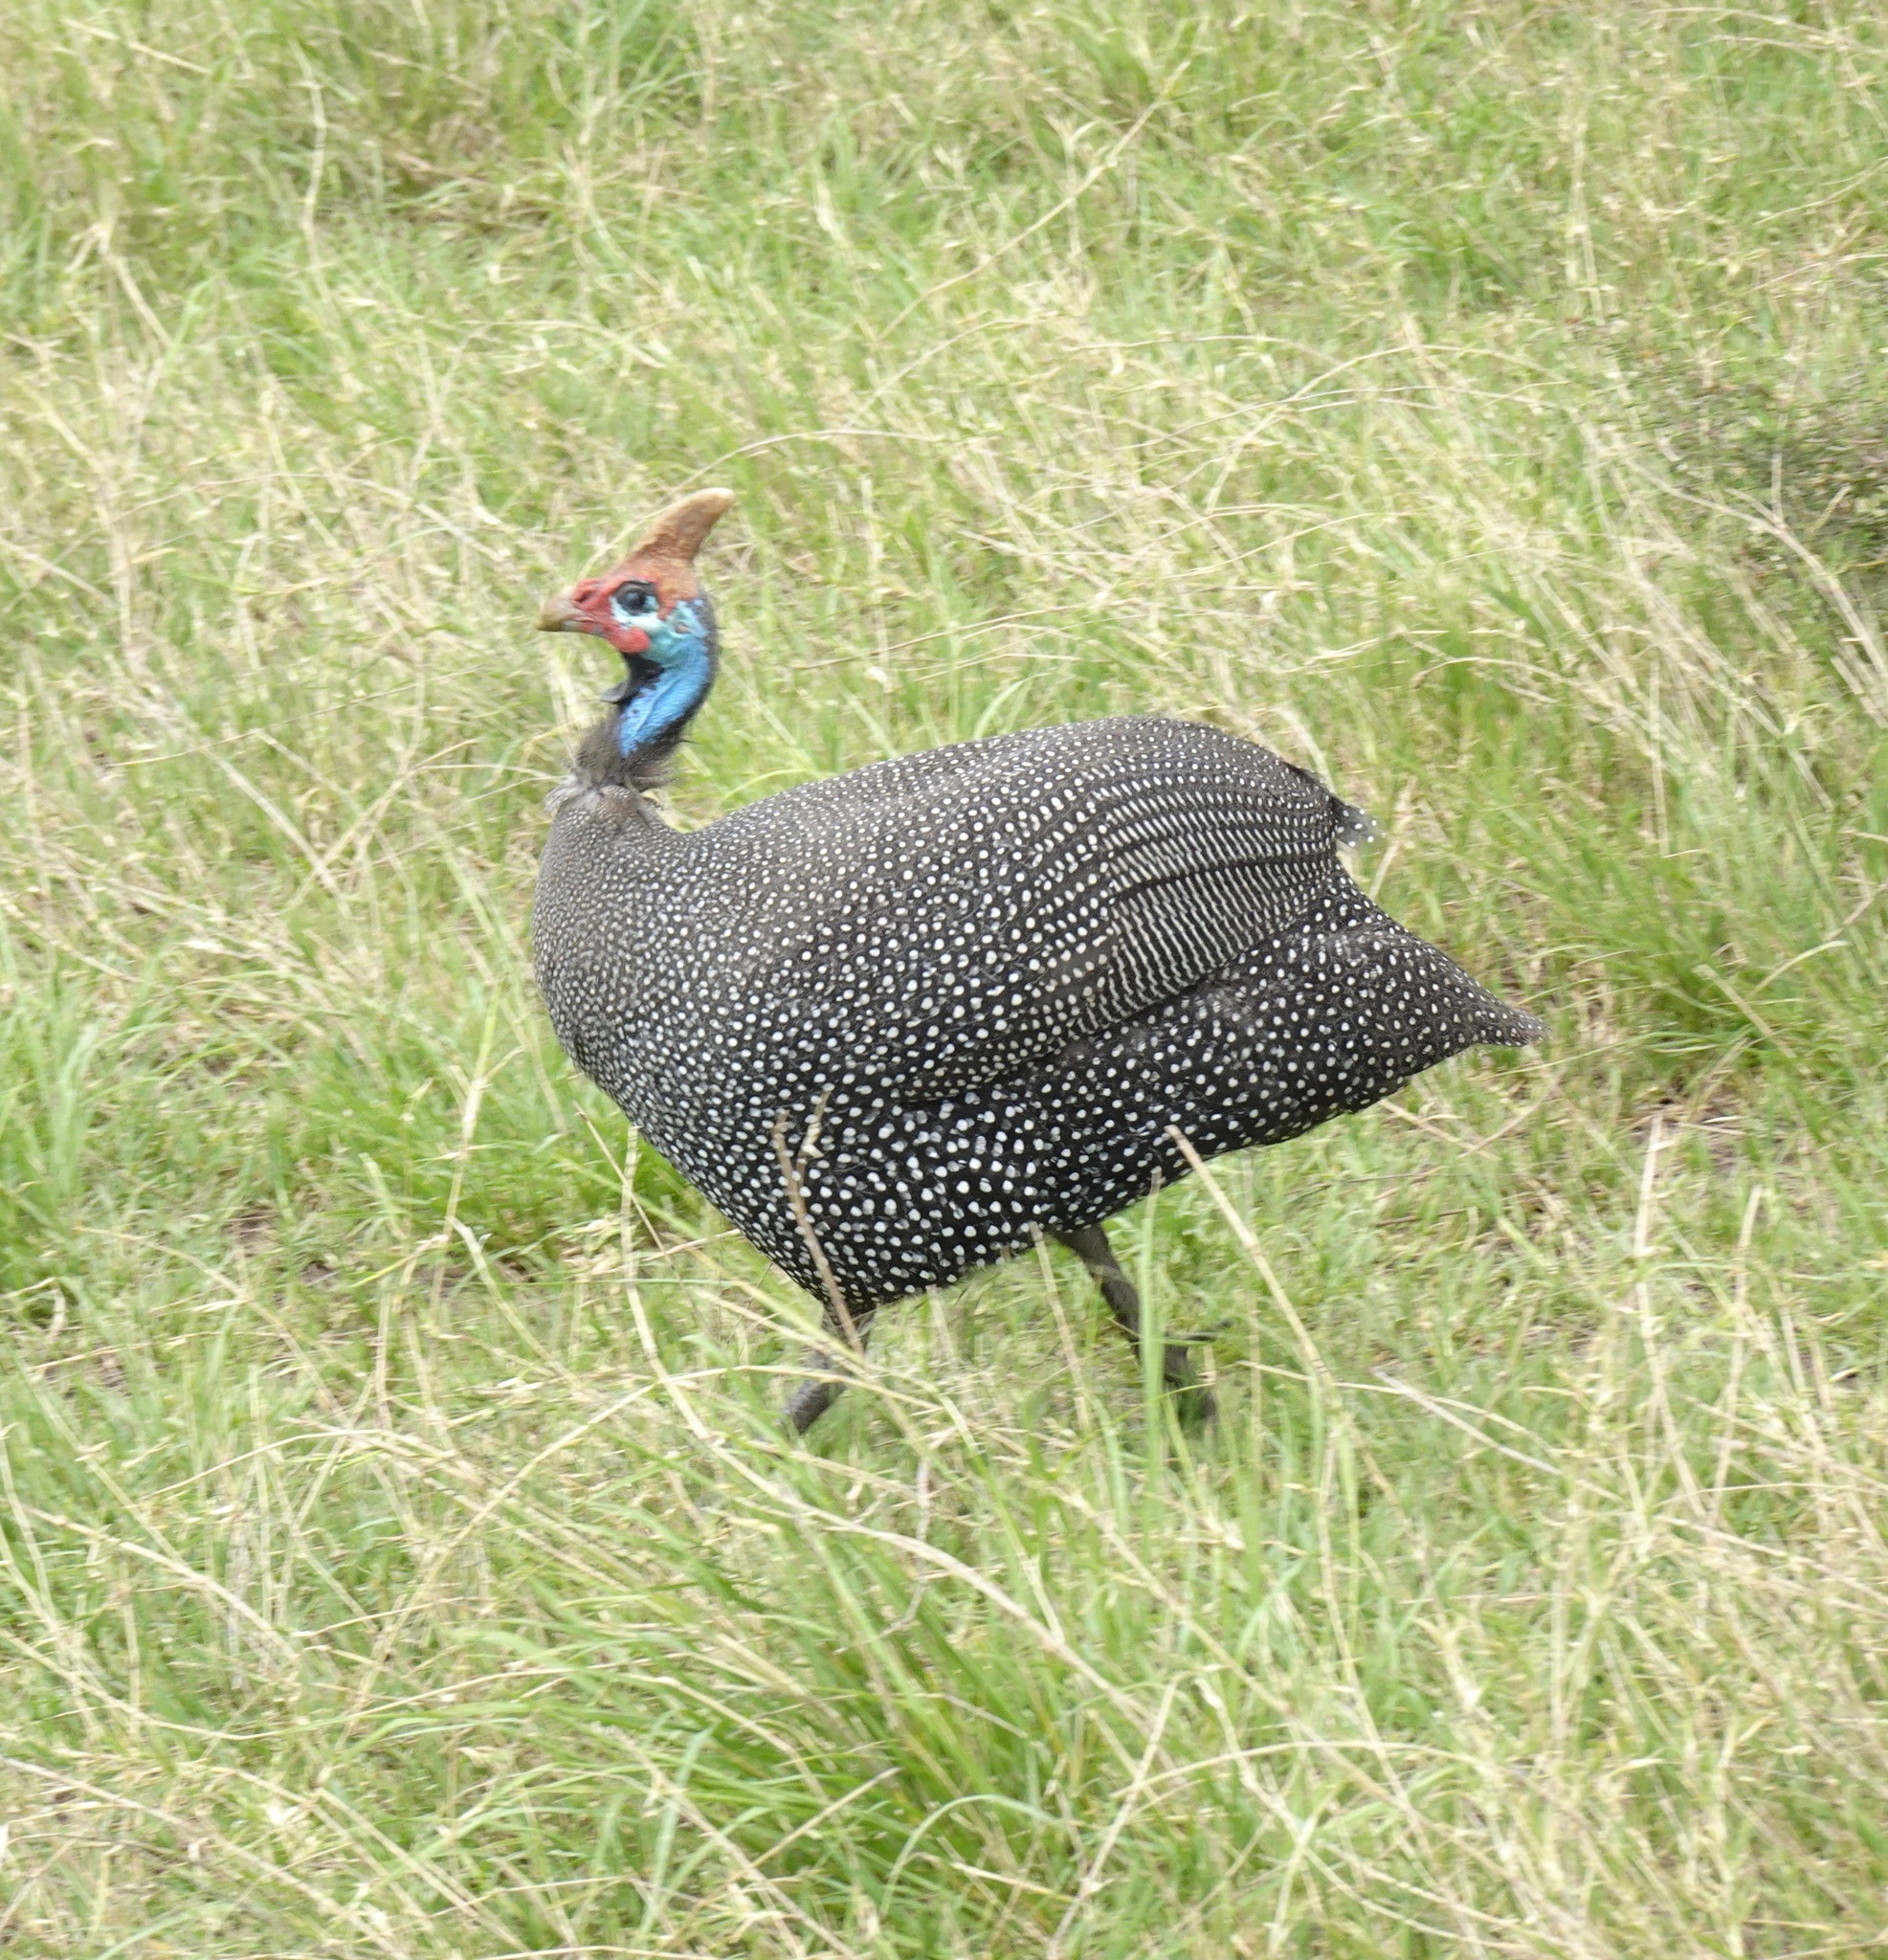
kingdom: Animalia
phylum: Chordata
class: Aves
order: Galliformes
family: Numididae
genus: Numida
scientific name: Numida meleagris
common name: Helmeted guineafowl
